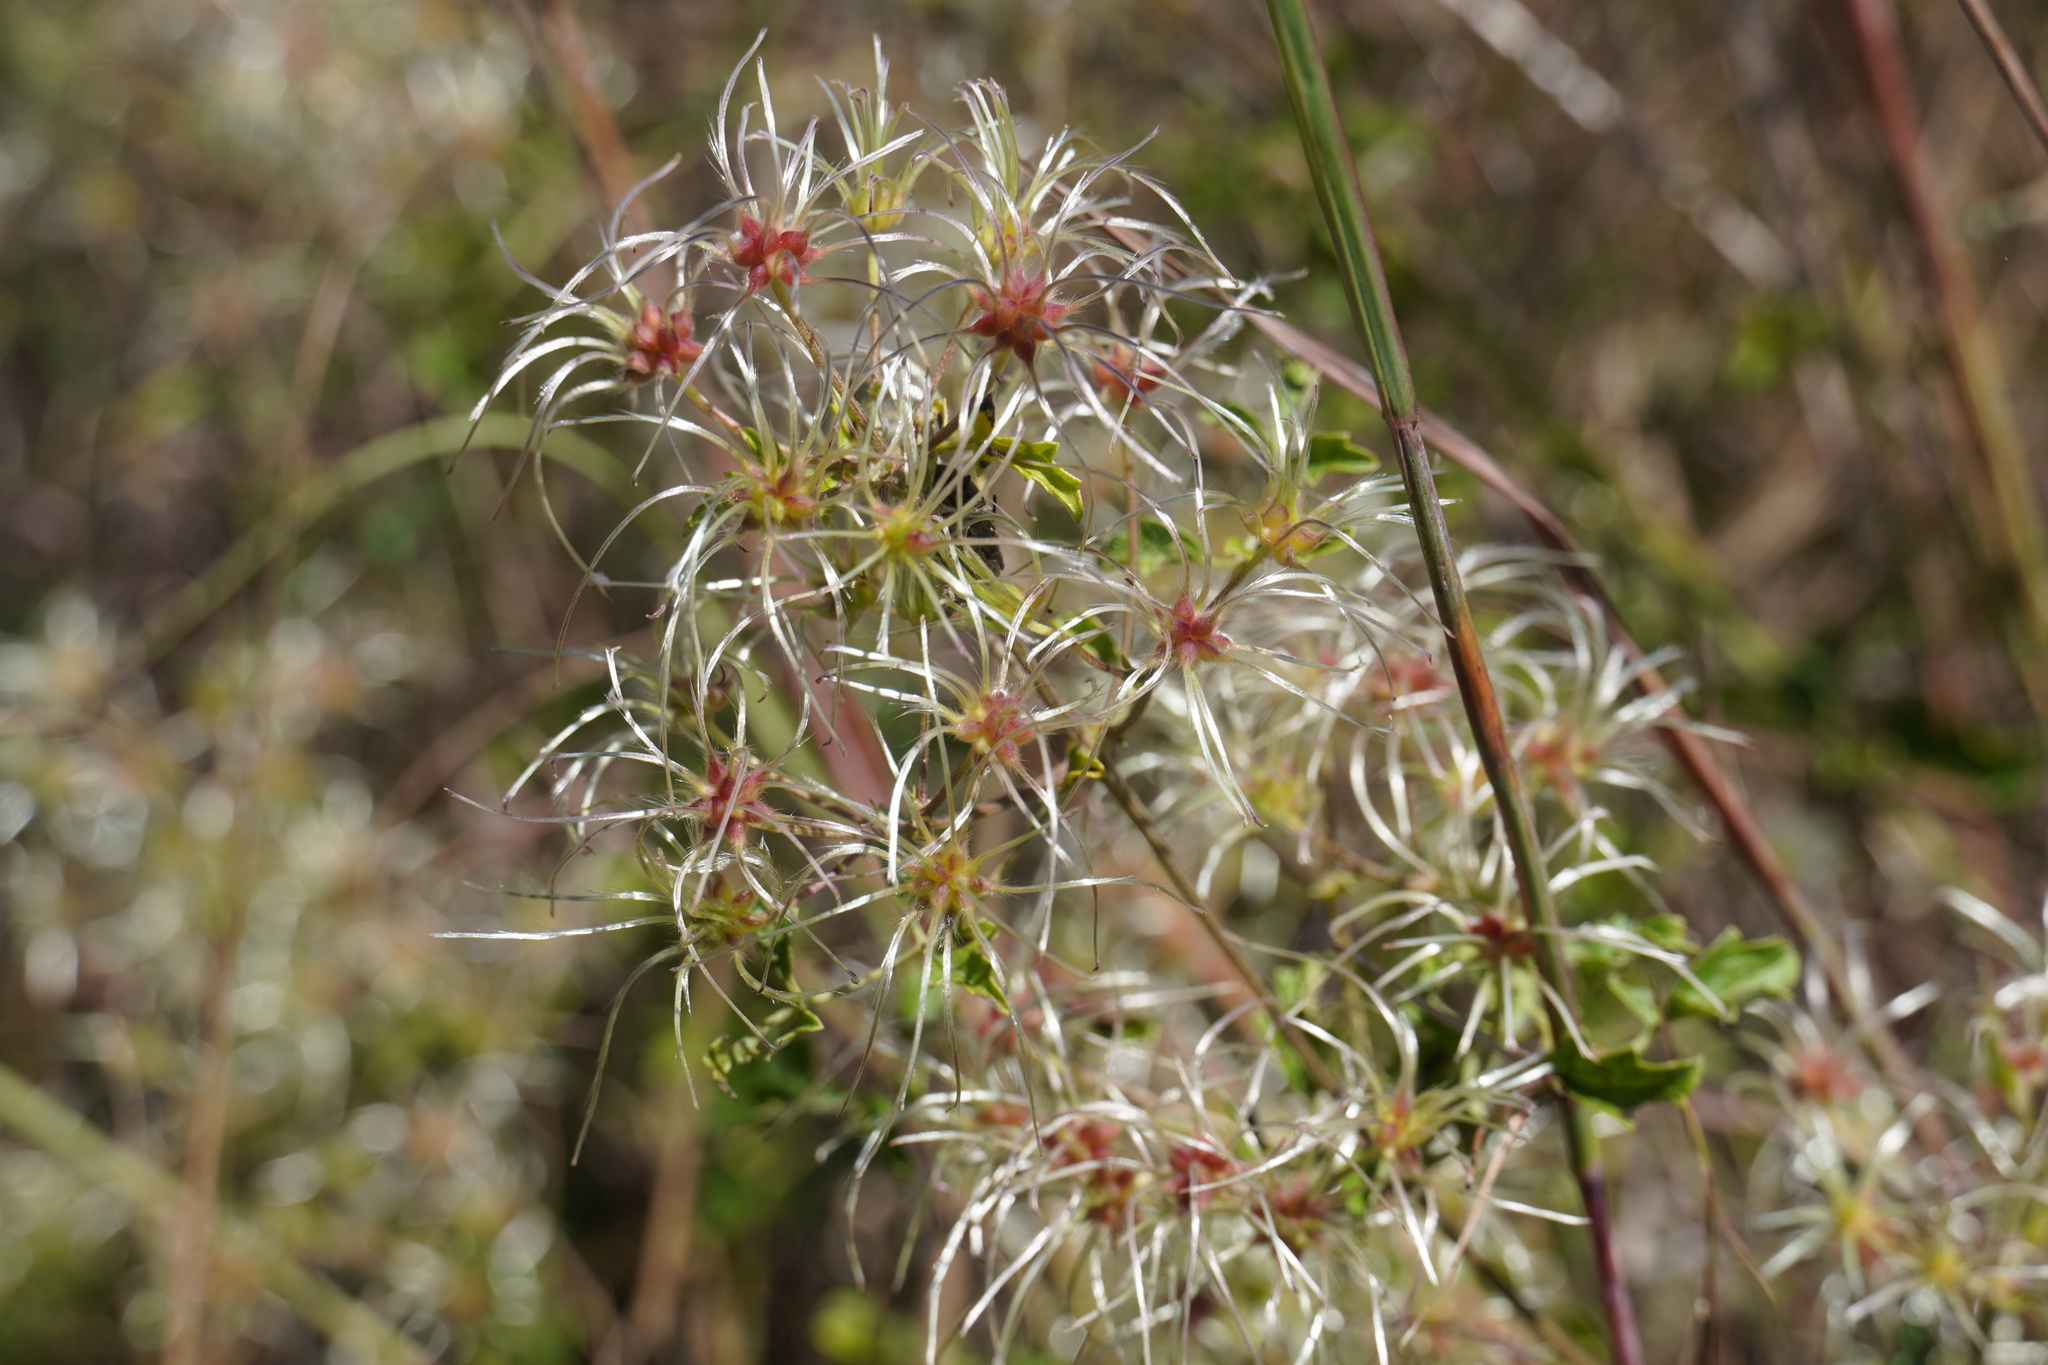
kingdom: Plantae
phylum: Tracheophyta
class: Magnoliopsida
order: Ranunculales
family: Ranunculaceae
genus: Clematis
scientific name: Clematis brachiata
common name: Traveler's-joy
